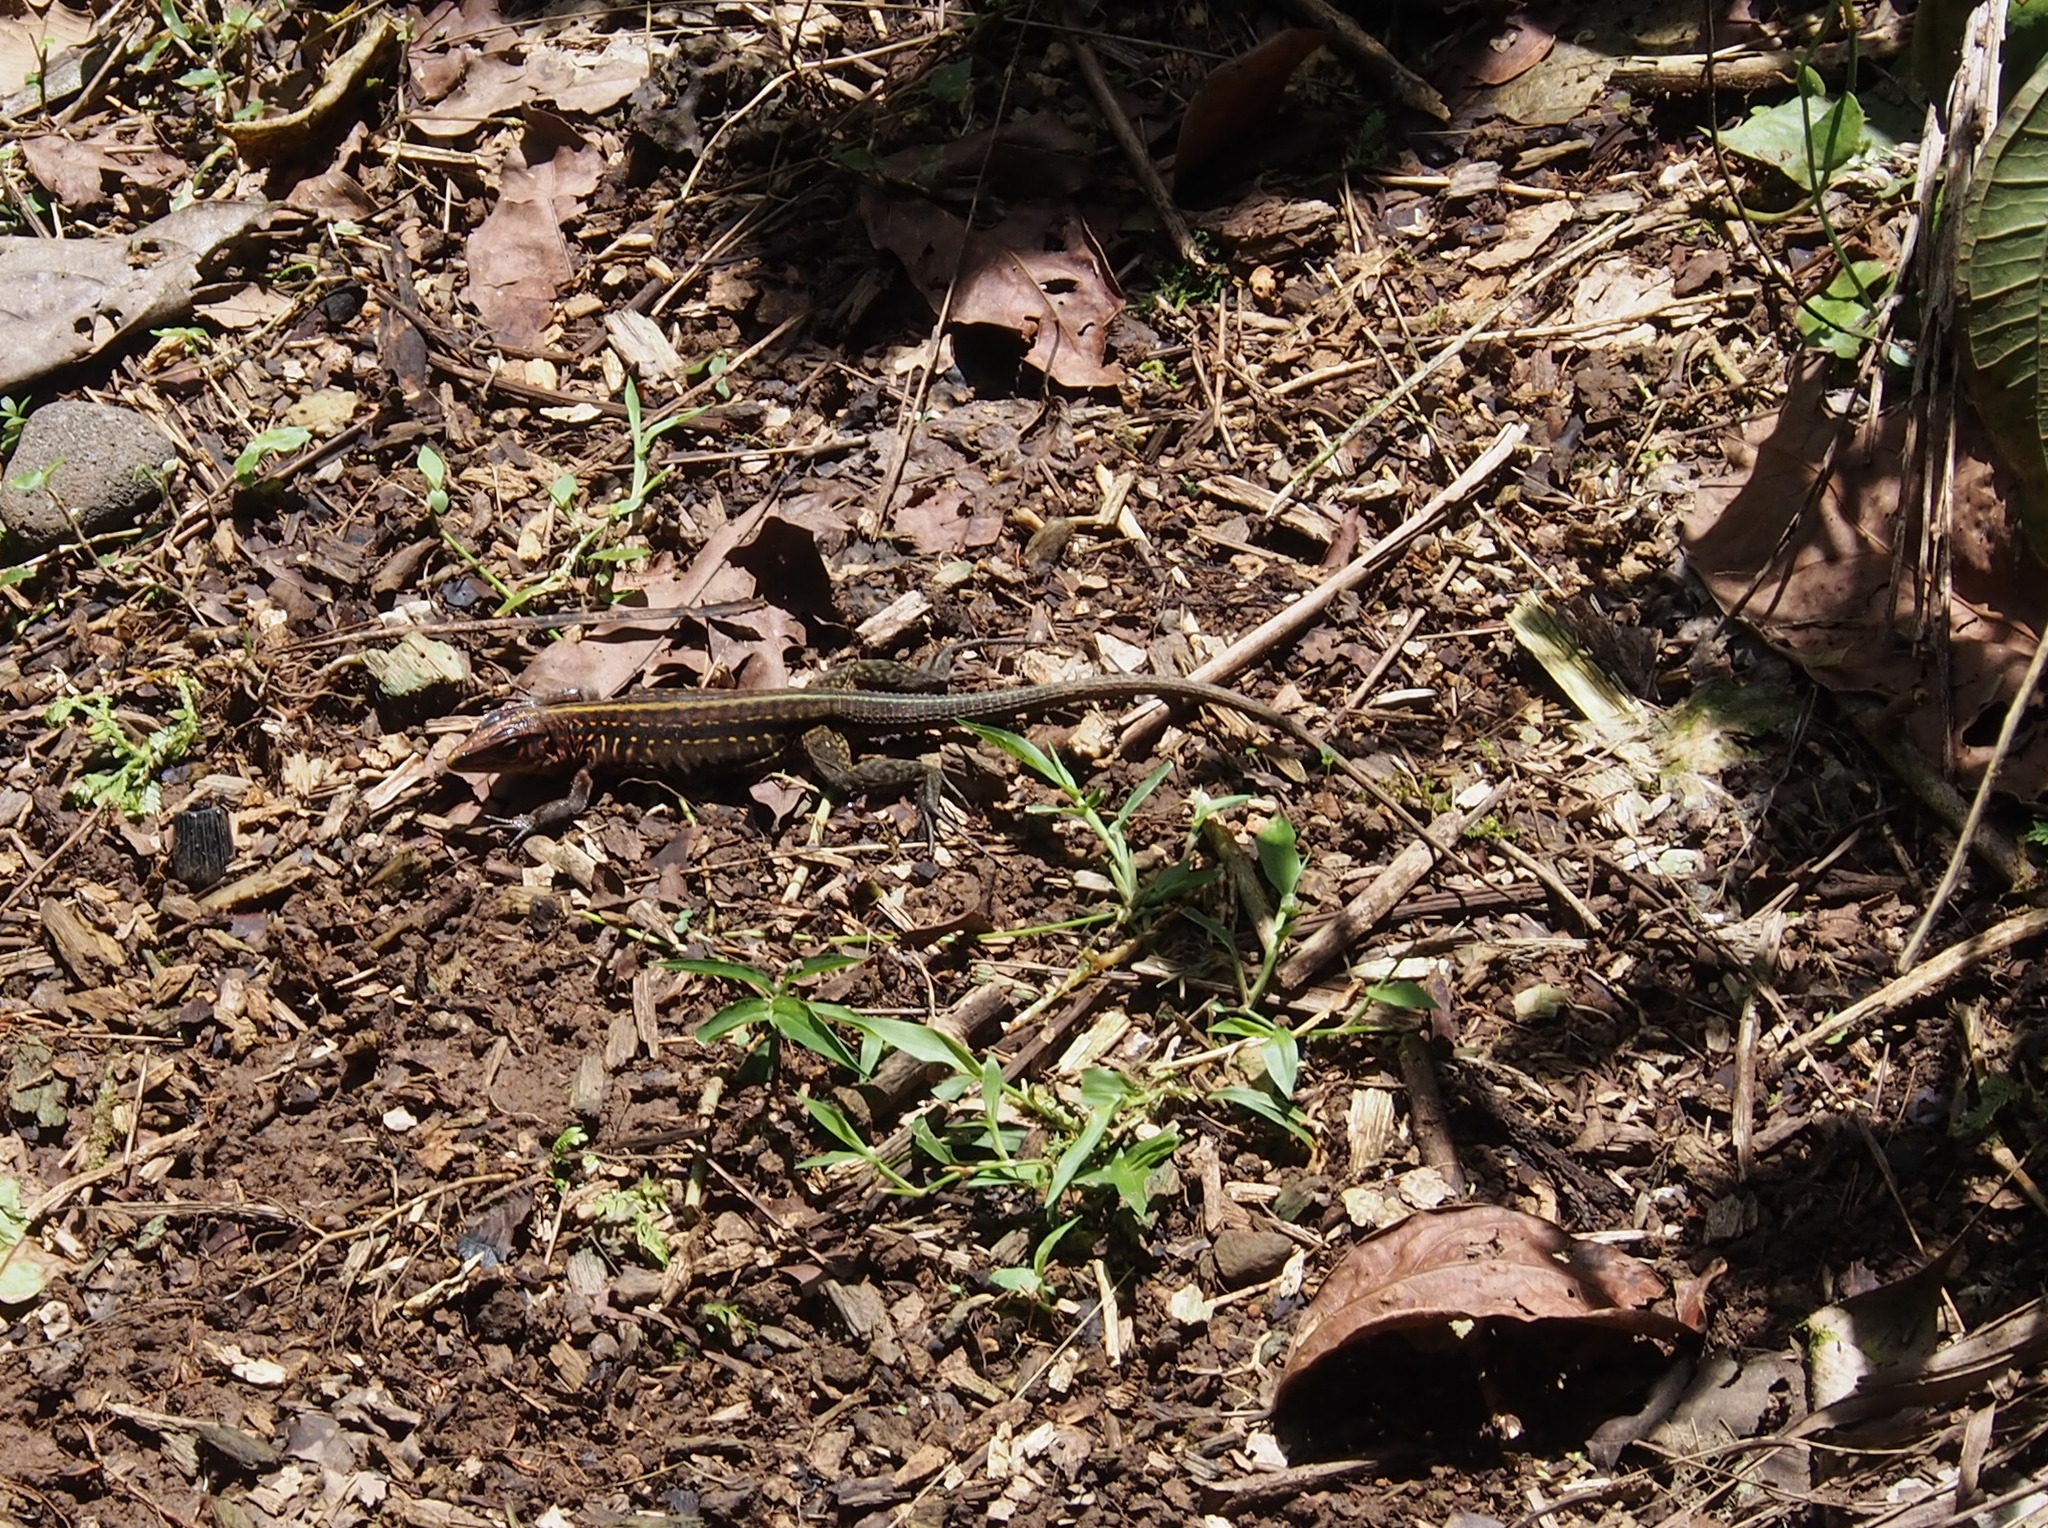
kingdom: Animalia
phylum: Chordata
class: Squamata
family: Teiidae
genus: Holcosus
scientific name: Holcosus festivus
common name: Middle american ameiva
